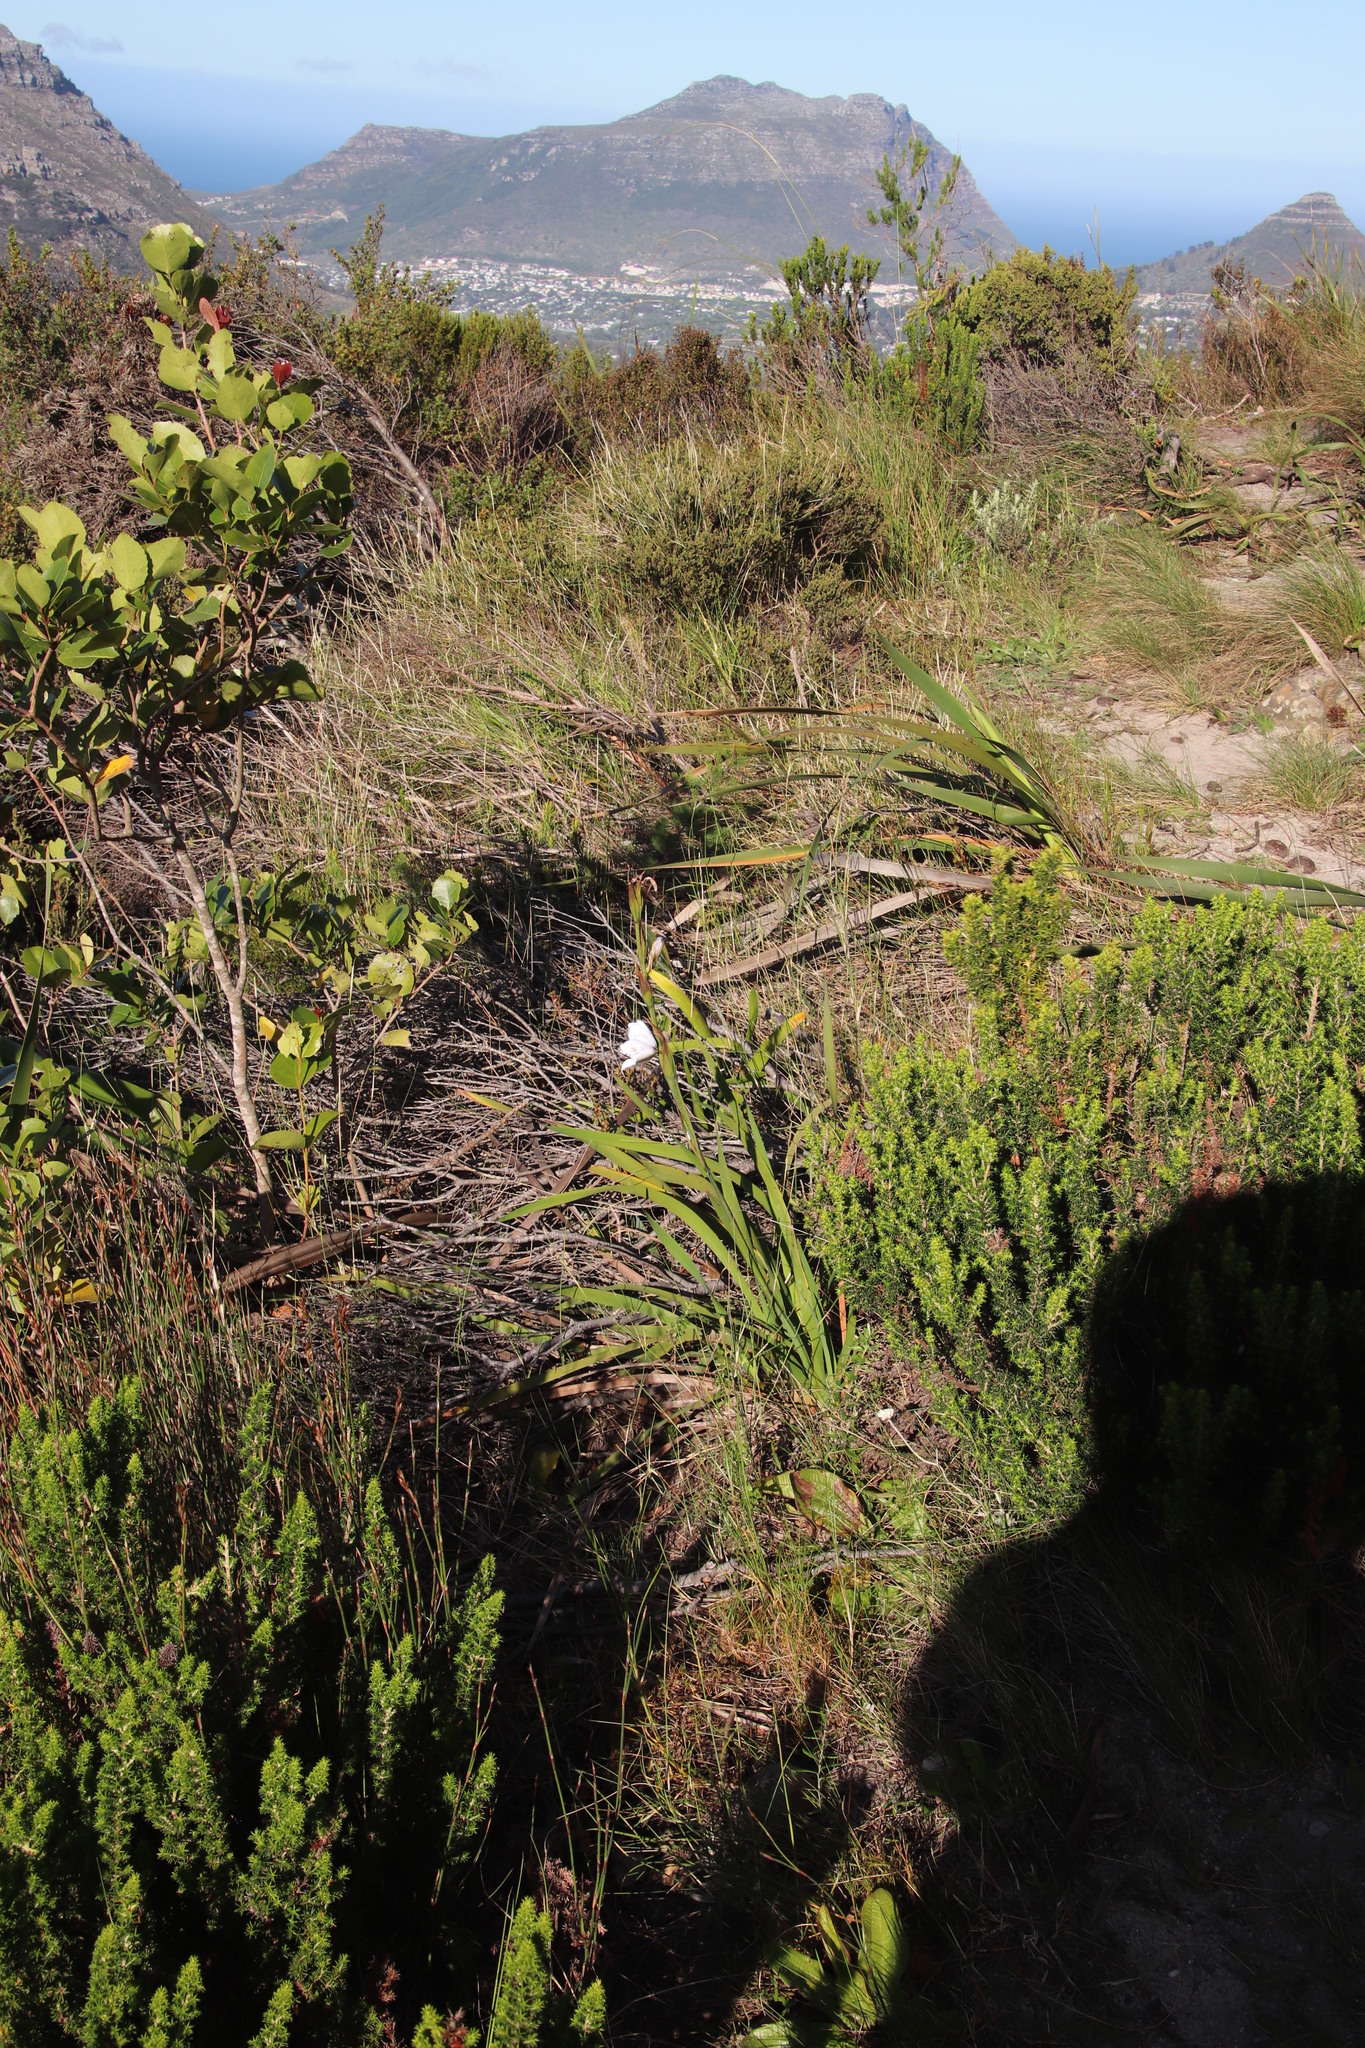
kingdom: Plantae
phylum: Tracheophyta
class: Liliopsida
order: Asparagales
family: Iridaceae
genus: Aristea
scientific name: Aristea spiralis
